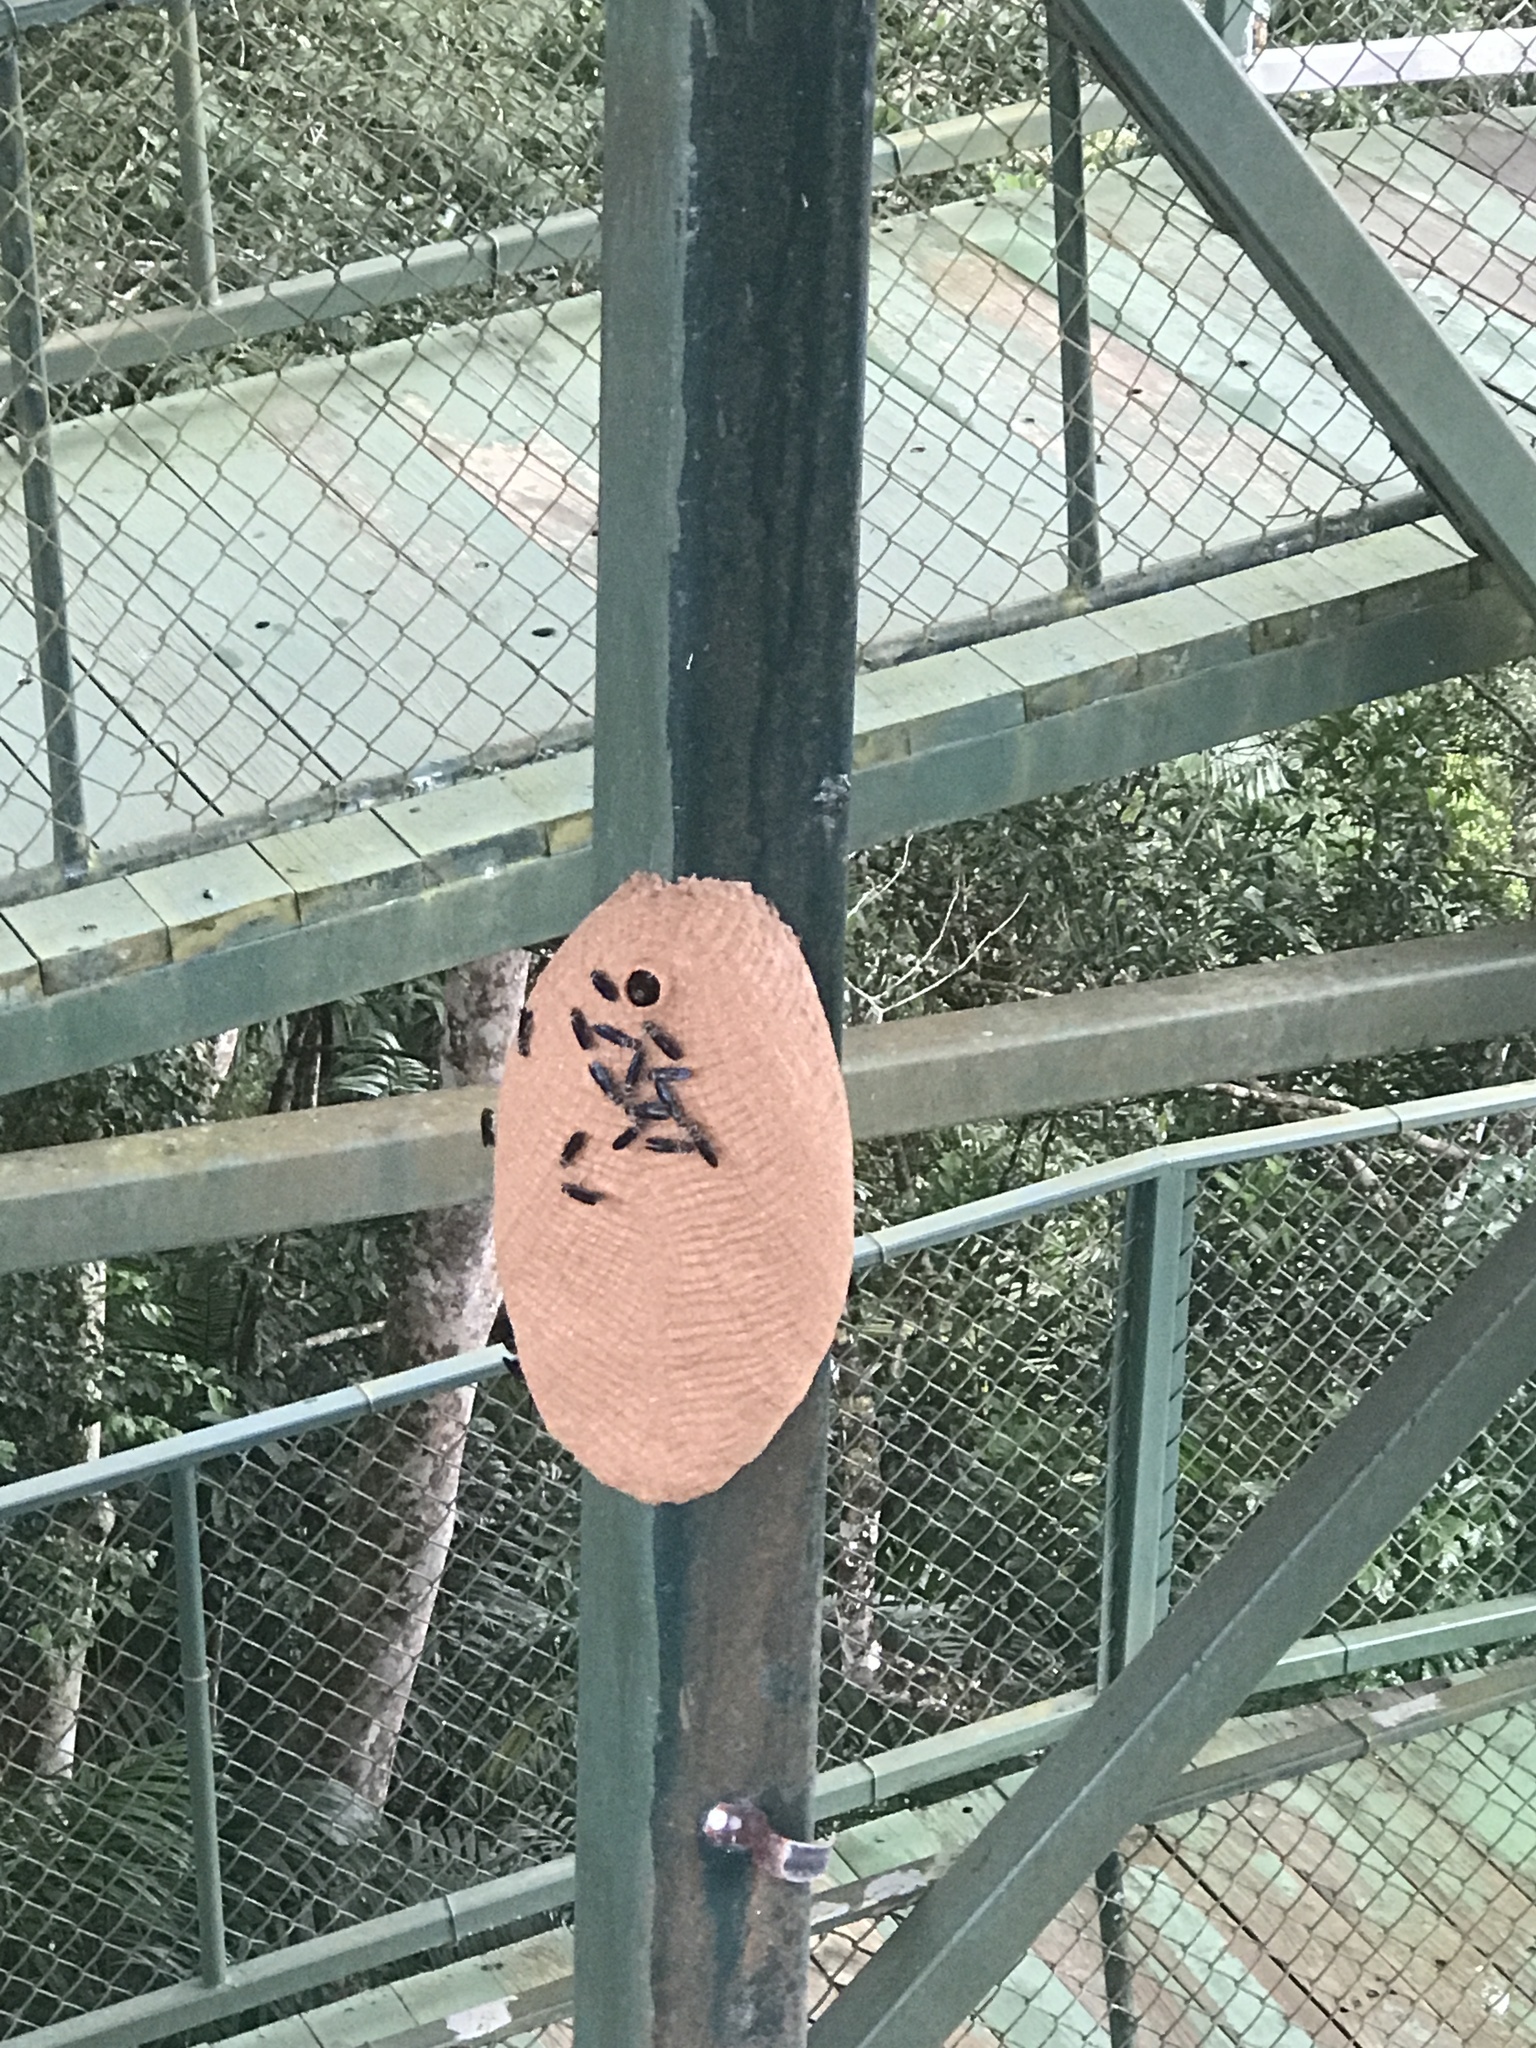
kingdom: Animalia
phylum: Arthropoda
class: Insecta
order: Hymenoptera
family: Vespidae
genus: Synoeca
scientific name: Synoeca septentrionalis
